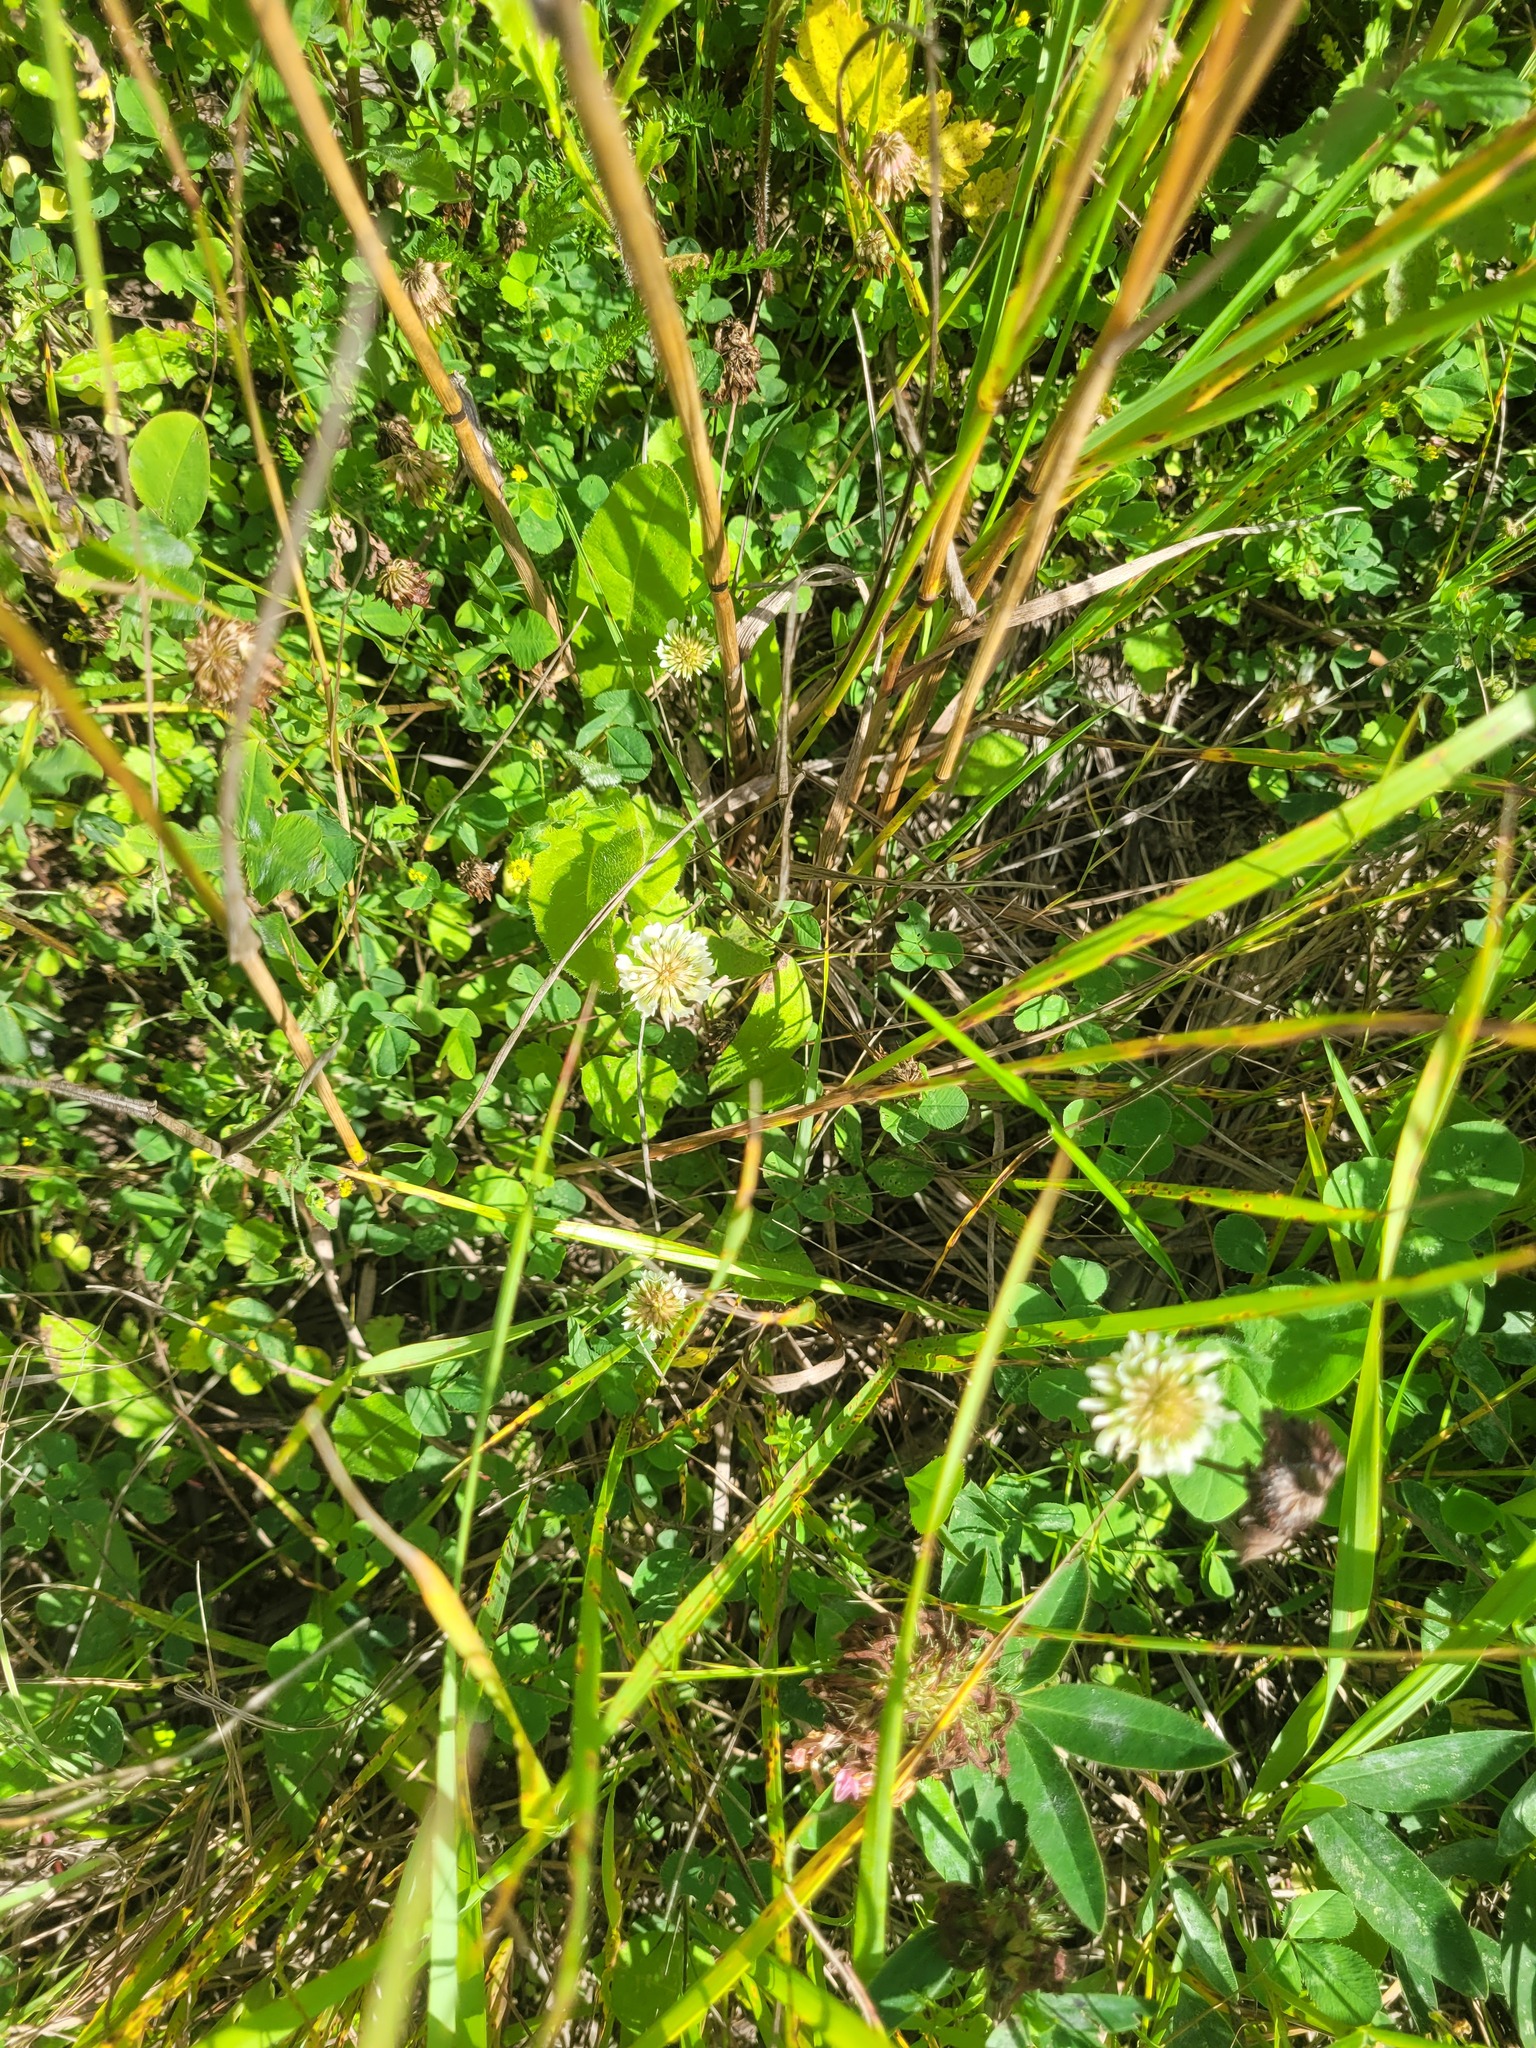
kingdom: Plantae
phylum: Tracheophyta
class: Magnoliopsida
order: Fabales
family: Fabaceae
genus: Trifolium
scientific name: Trifolium repens
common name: White clover
